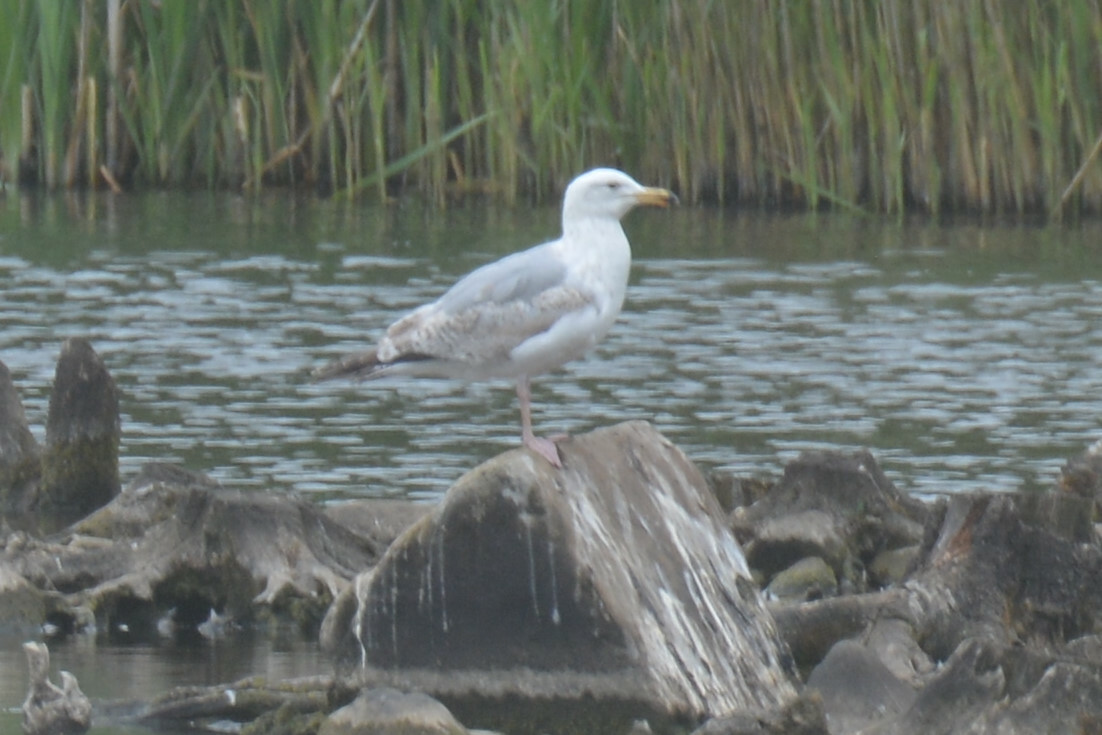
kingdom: Animalia
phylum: Chordata
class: Aves
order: Charadriiformes
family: Laridae
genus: Larus
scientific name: Larus argentatus
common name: Herring gull
